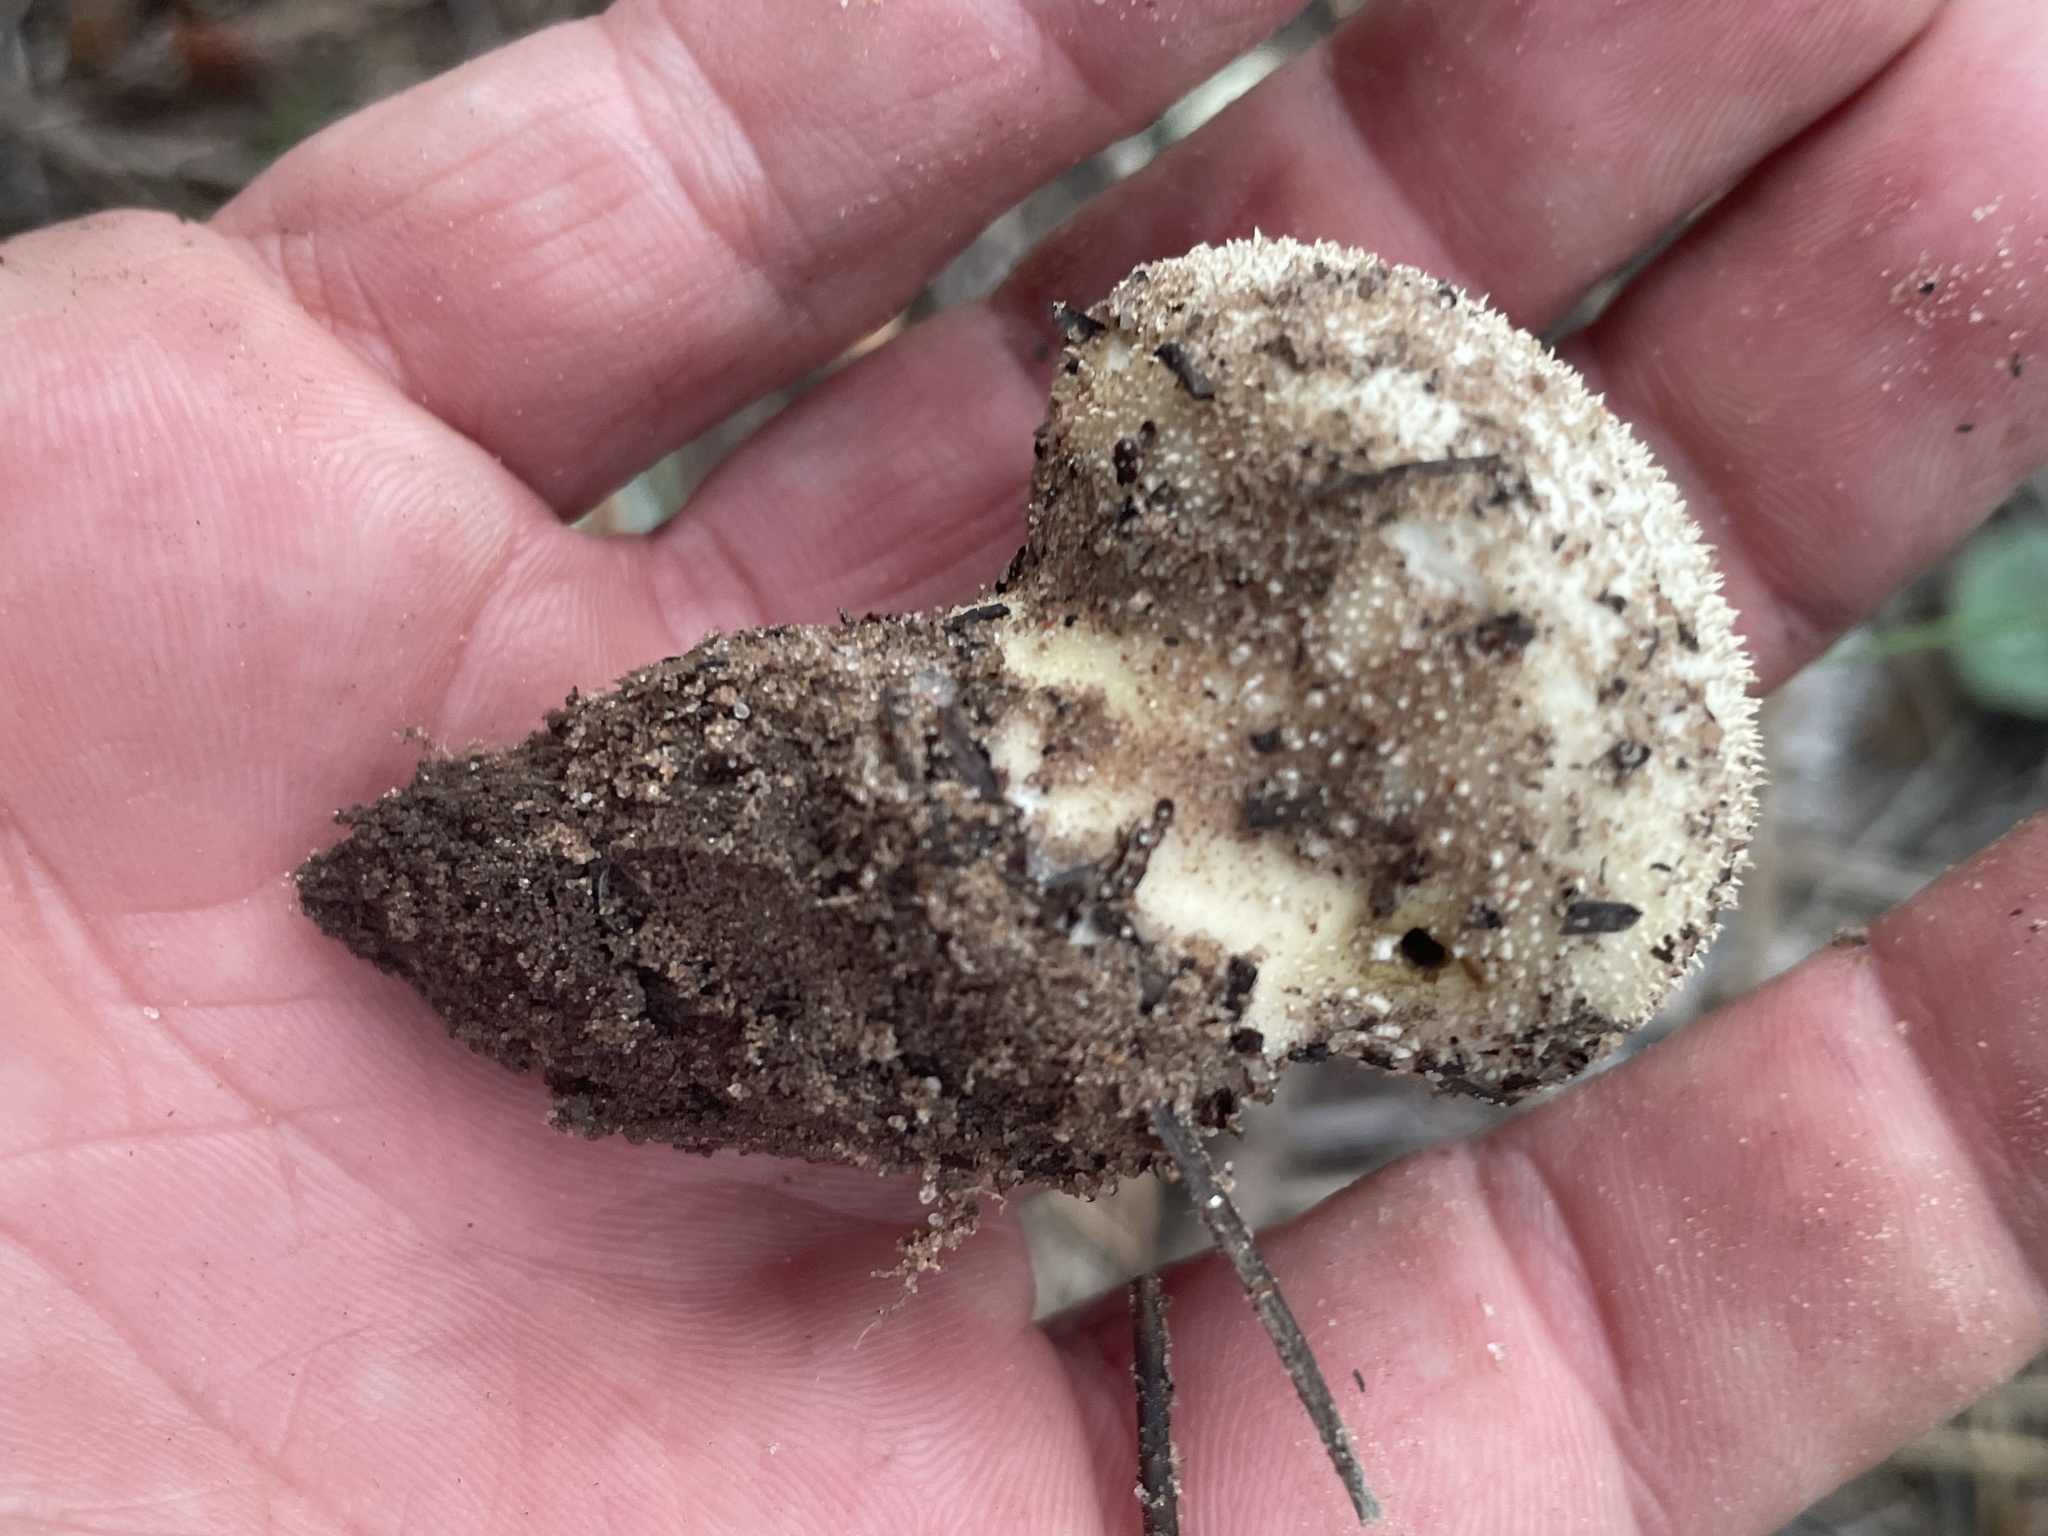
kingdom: Fungi
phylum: Basidiomycota
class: Agaricomycetes
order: Agaricales
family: Lycoperdaceae
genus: Lycoperdon
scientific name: Lycoperdon perlatum
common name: Common puffball
